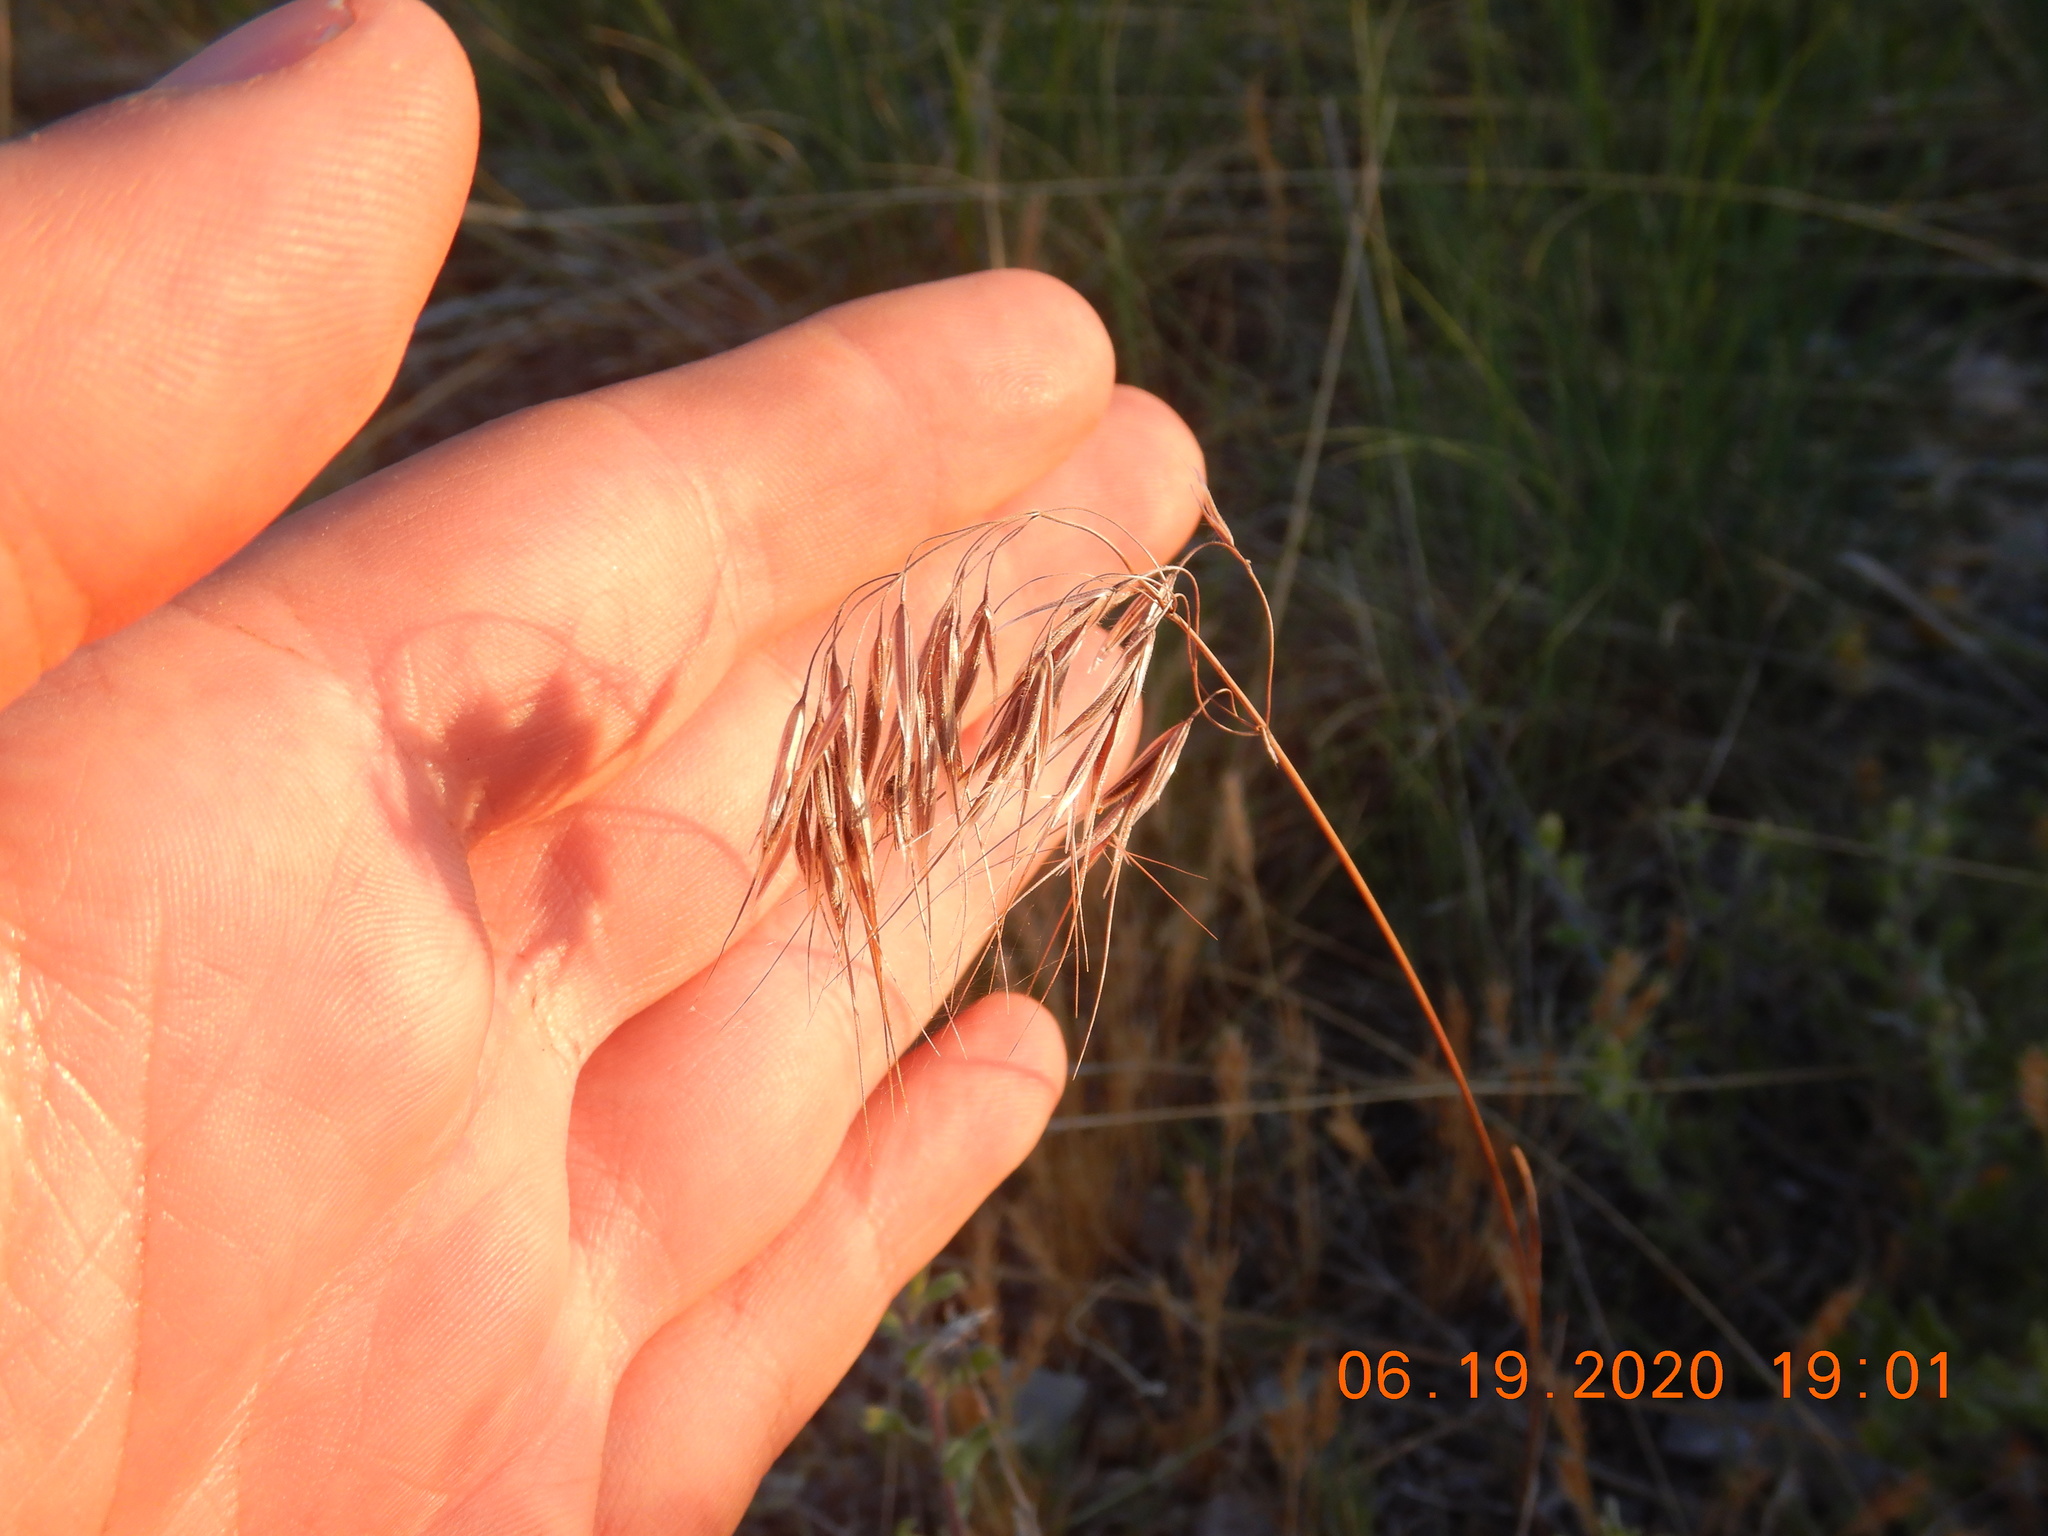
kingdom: Plantae
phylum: Tracheophyta
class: Liliopsida
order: Poales
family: Poaceae
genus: Bromus
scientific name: Bromus tectorum
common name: Cheatgrass
